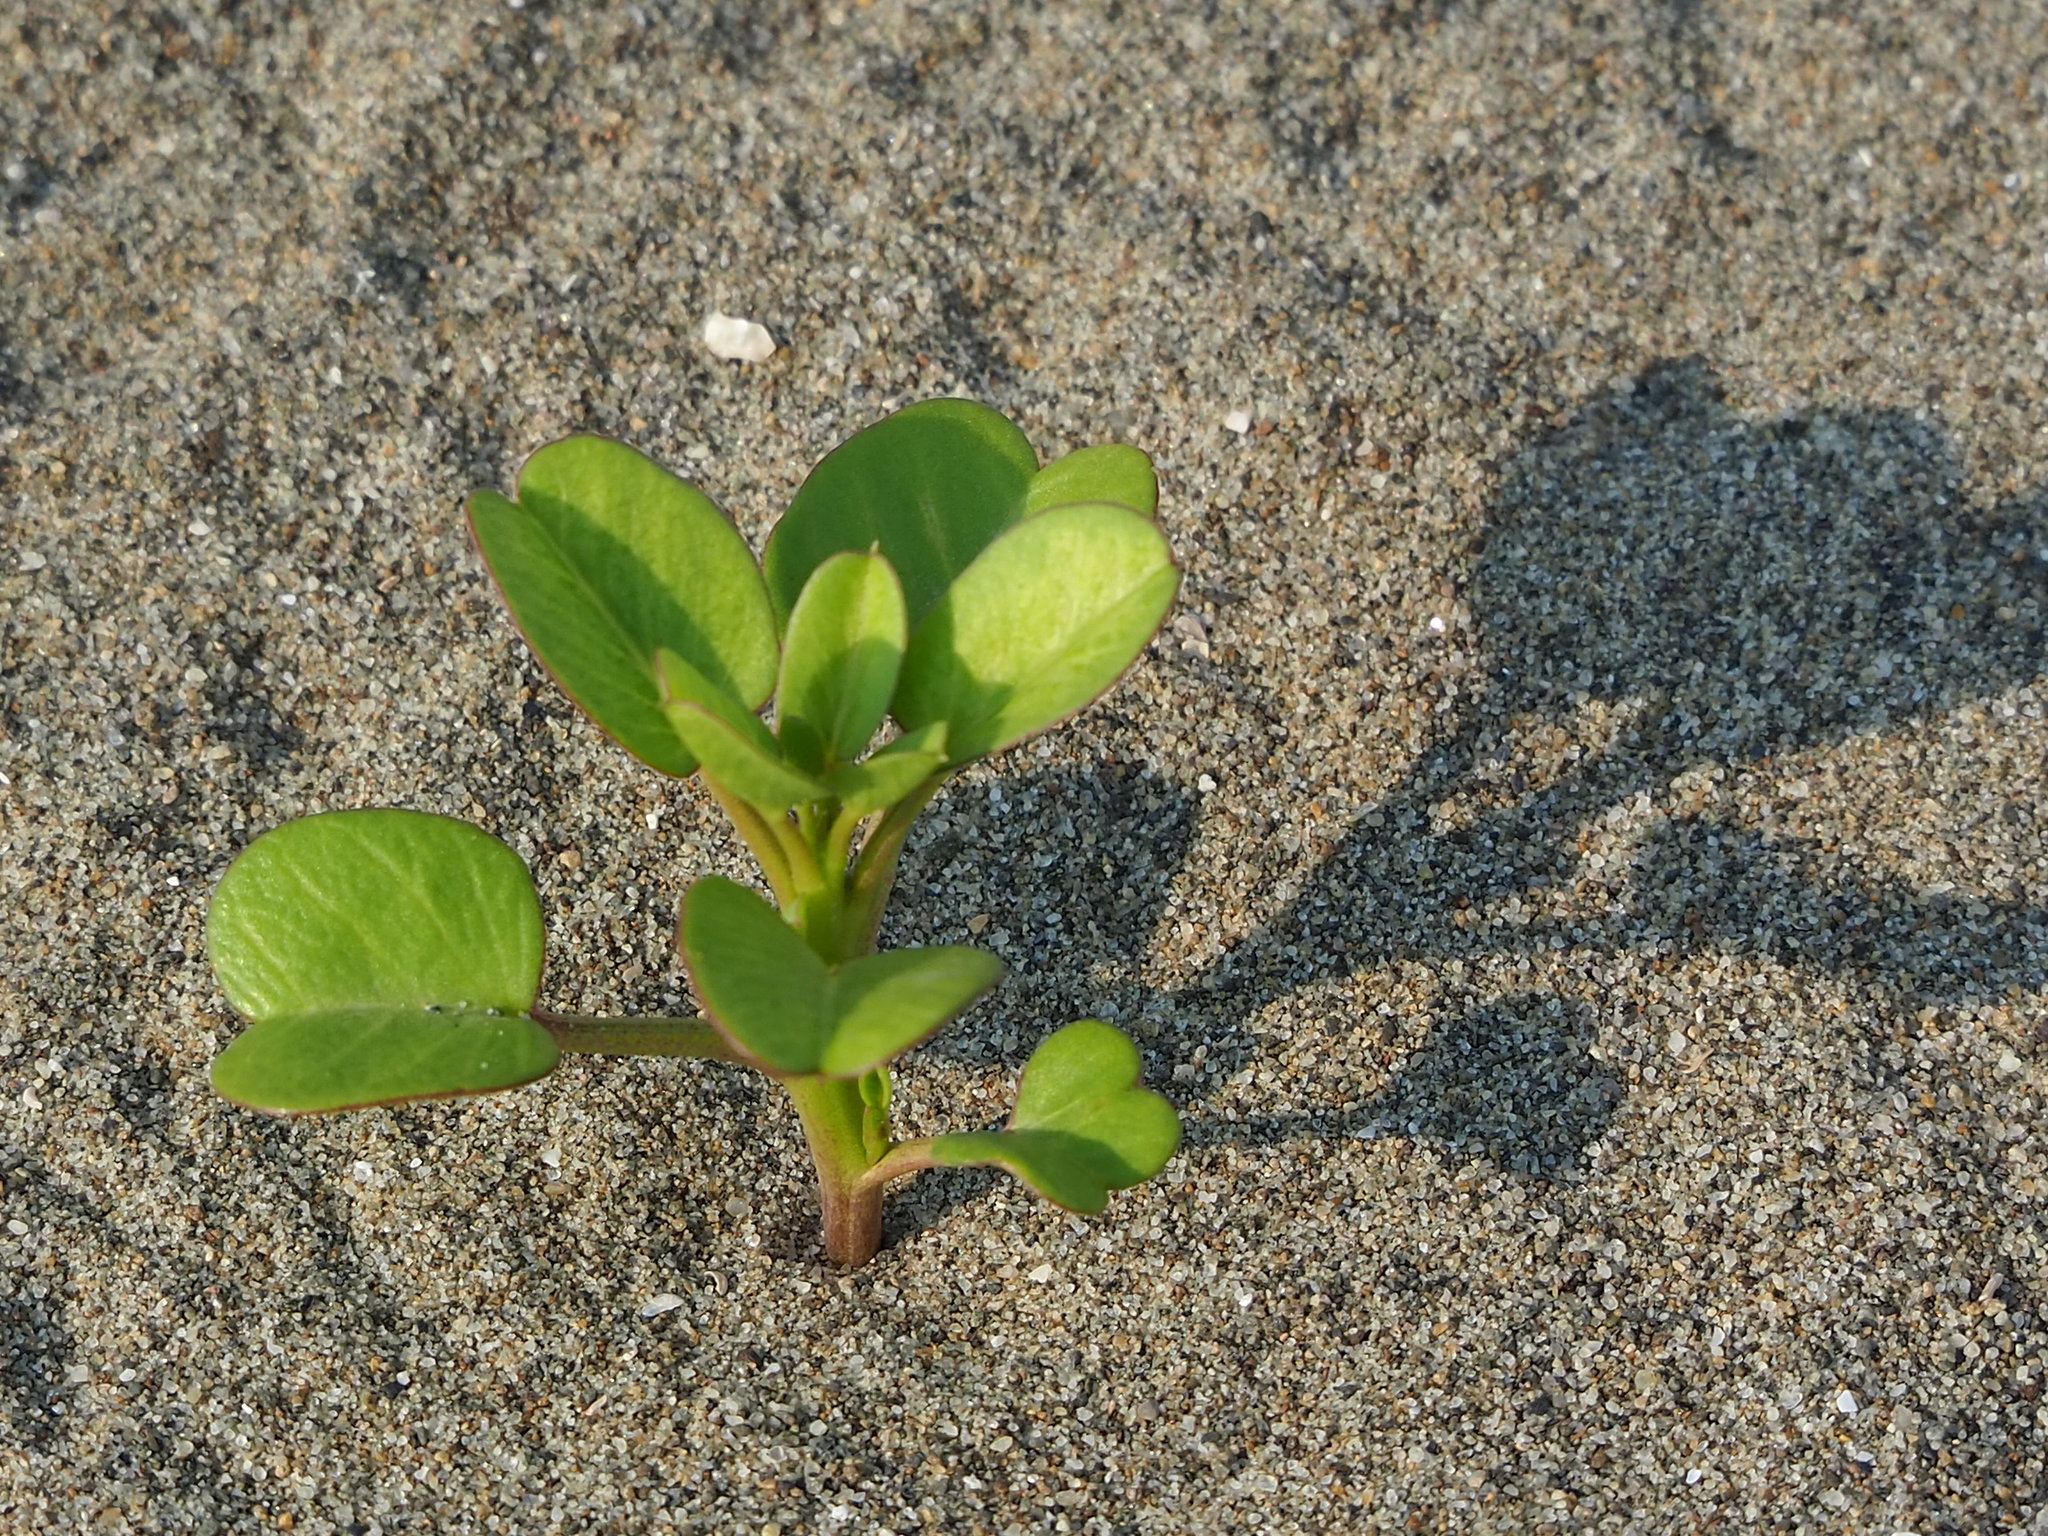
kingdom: Plantae
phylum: Tracheophyta
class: Magnoliopsida
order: Solanales
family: Convolvulaceae
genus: Ipomoea
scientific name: Ipomoea pes-caprae
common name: Beach morning glory
